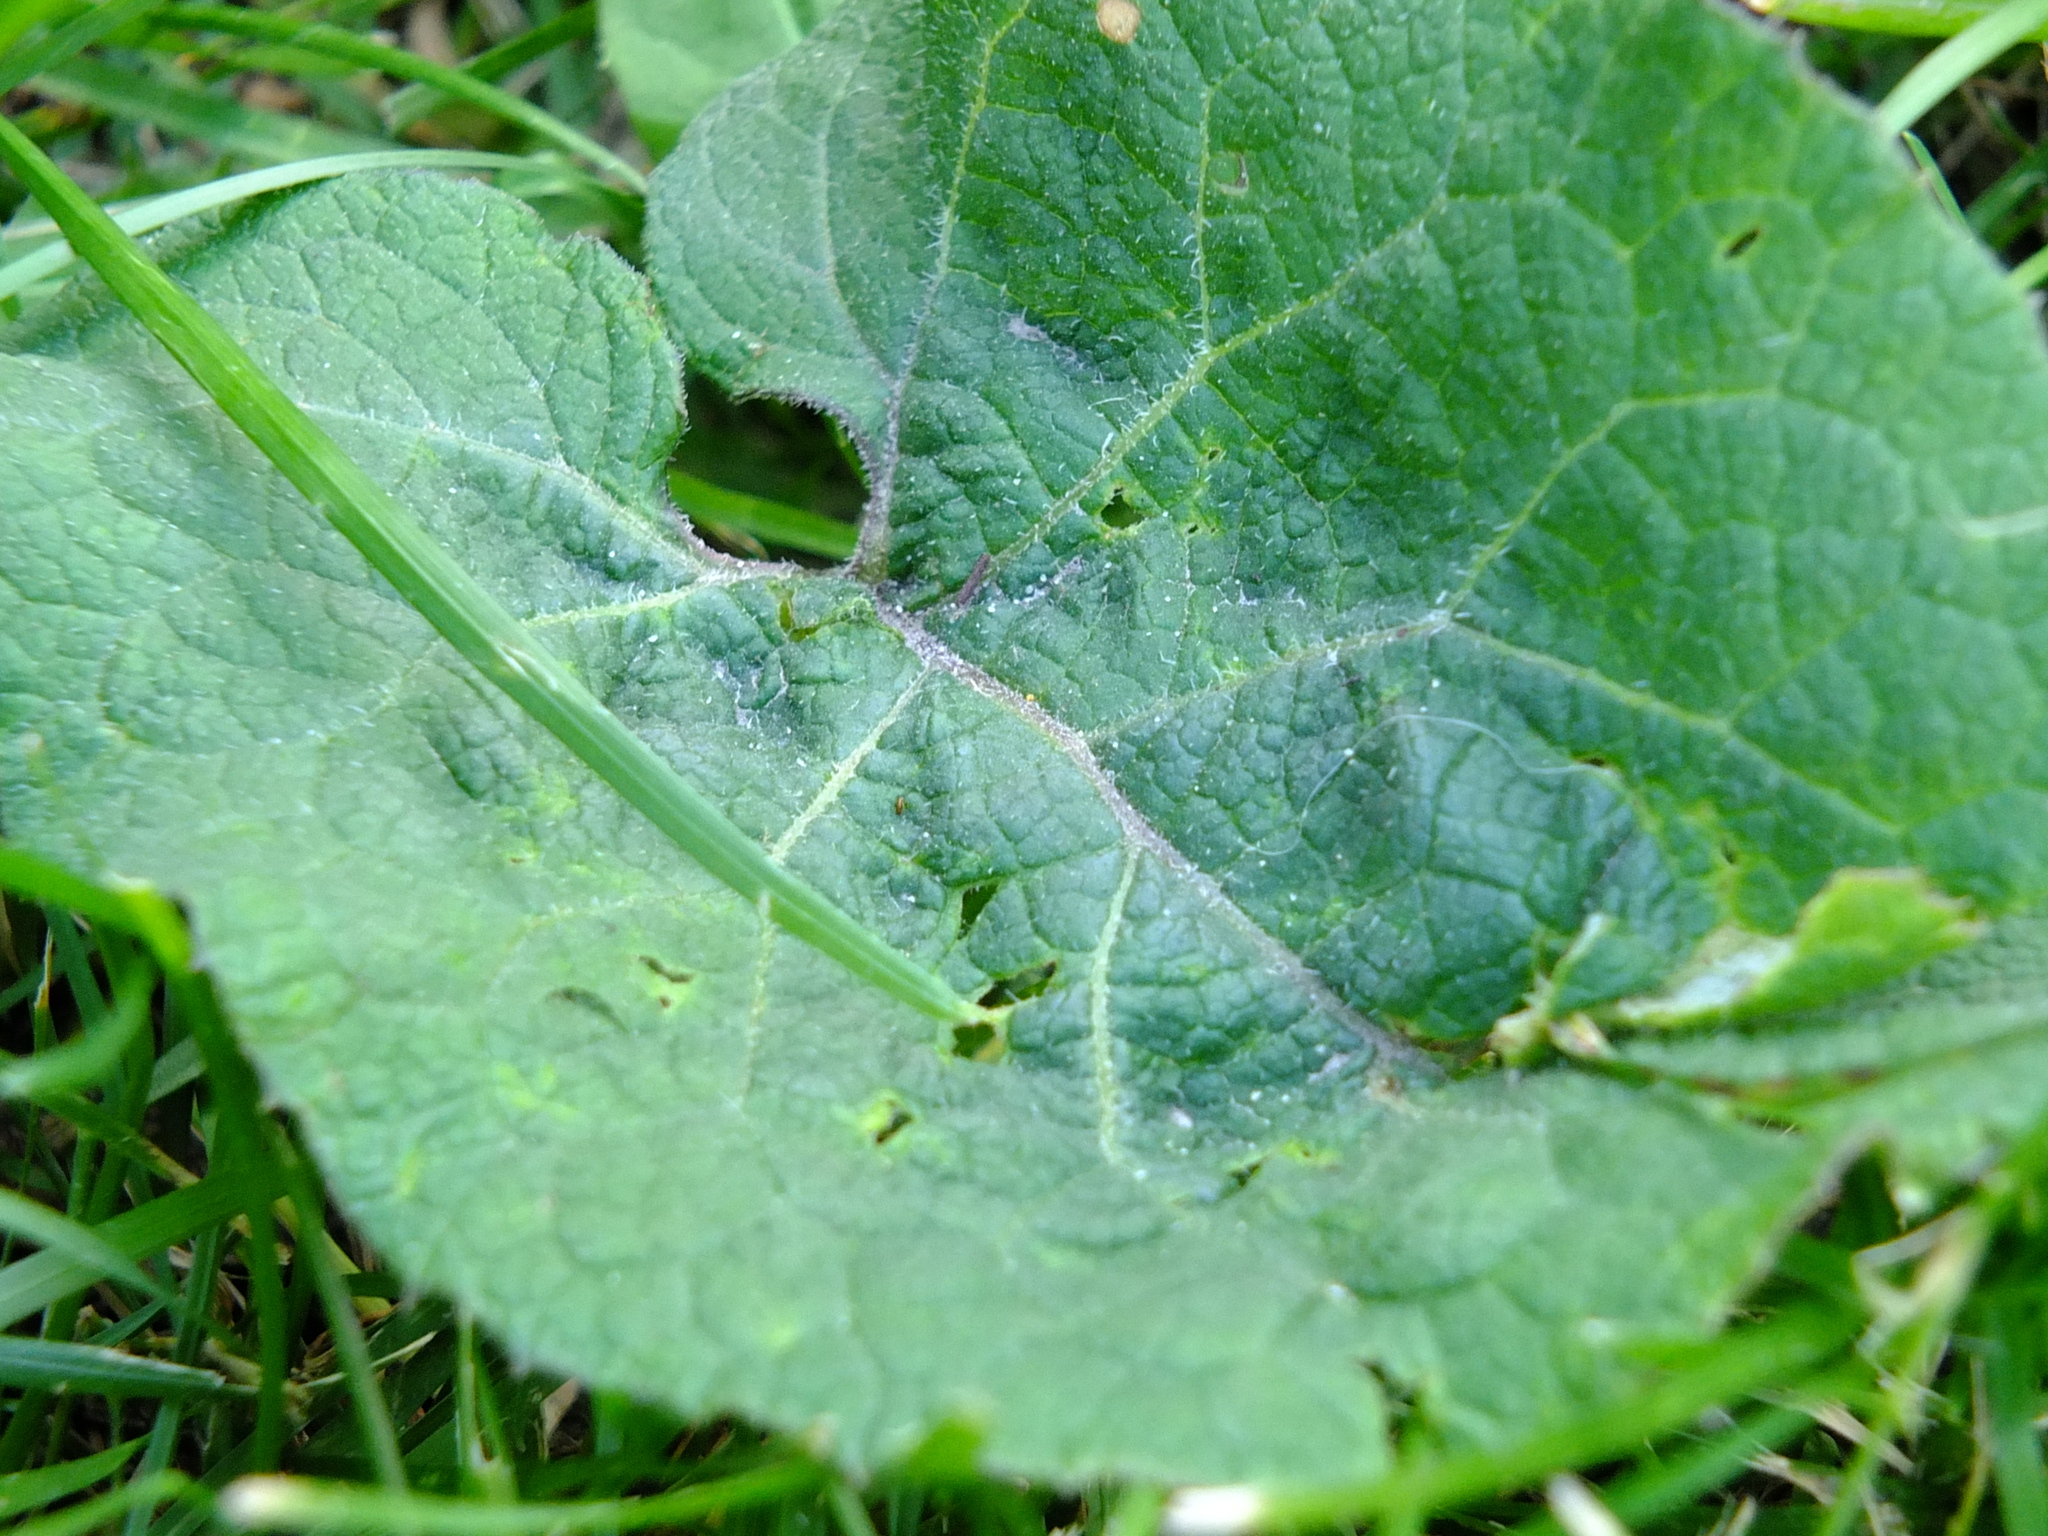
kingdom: Plantae
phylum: Tracheophyta
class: Magnoliopsida
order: Asterales
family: Asteraceae
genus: Arctium
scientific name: Arctium
